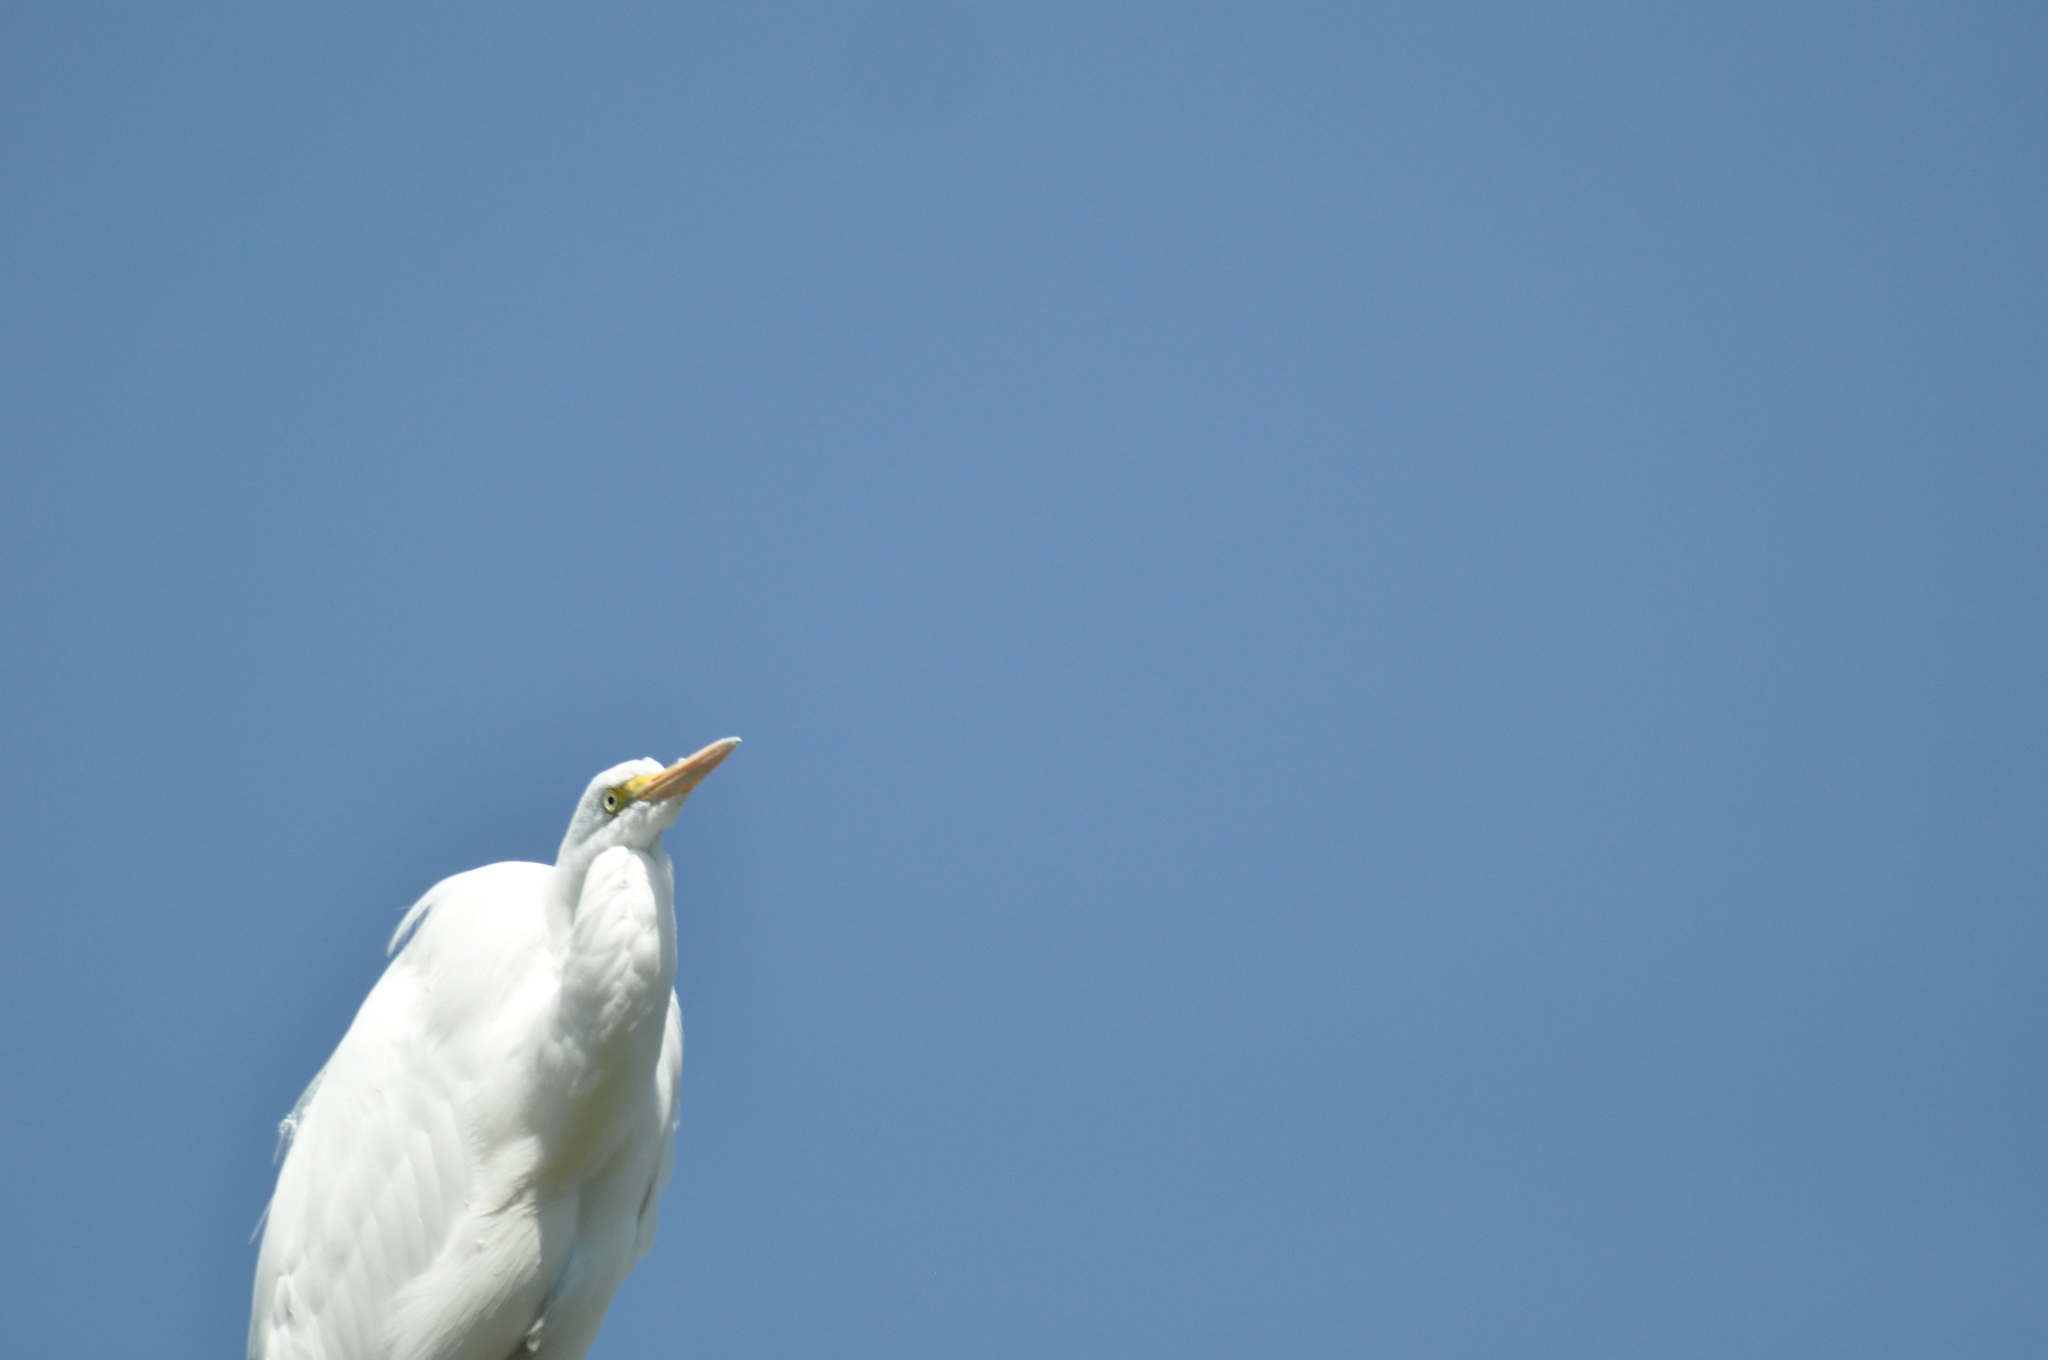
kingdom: Animalia
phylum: Chordata
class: Aves
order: Pelecaniformes
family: Ardeidae
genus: Ardea
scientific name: Ardea alba
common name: Great egret
